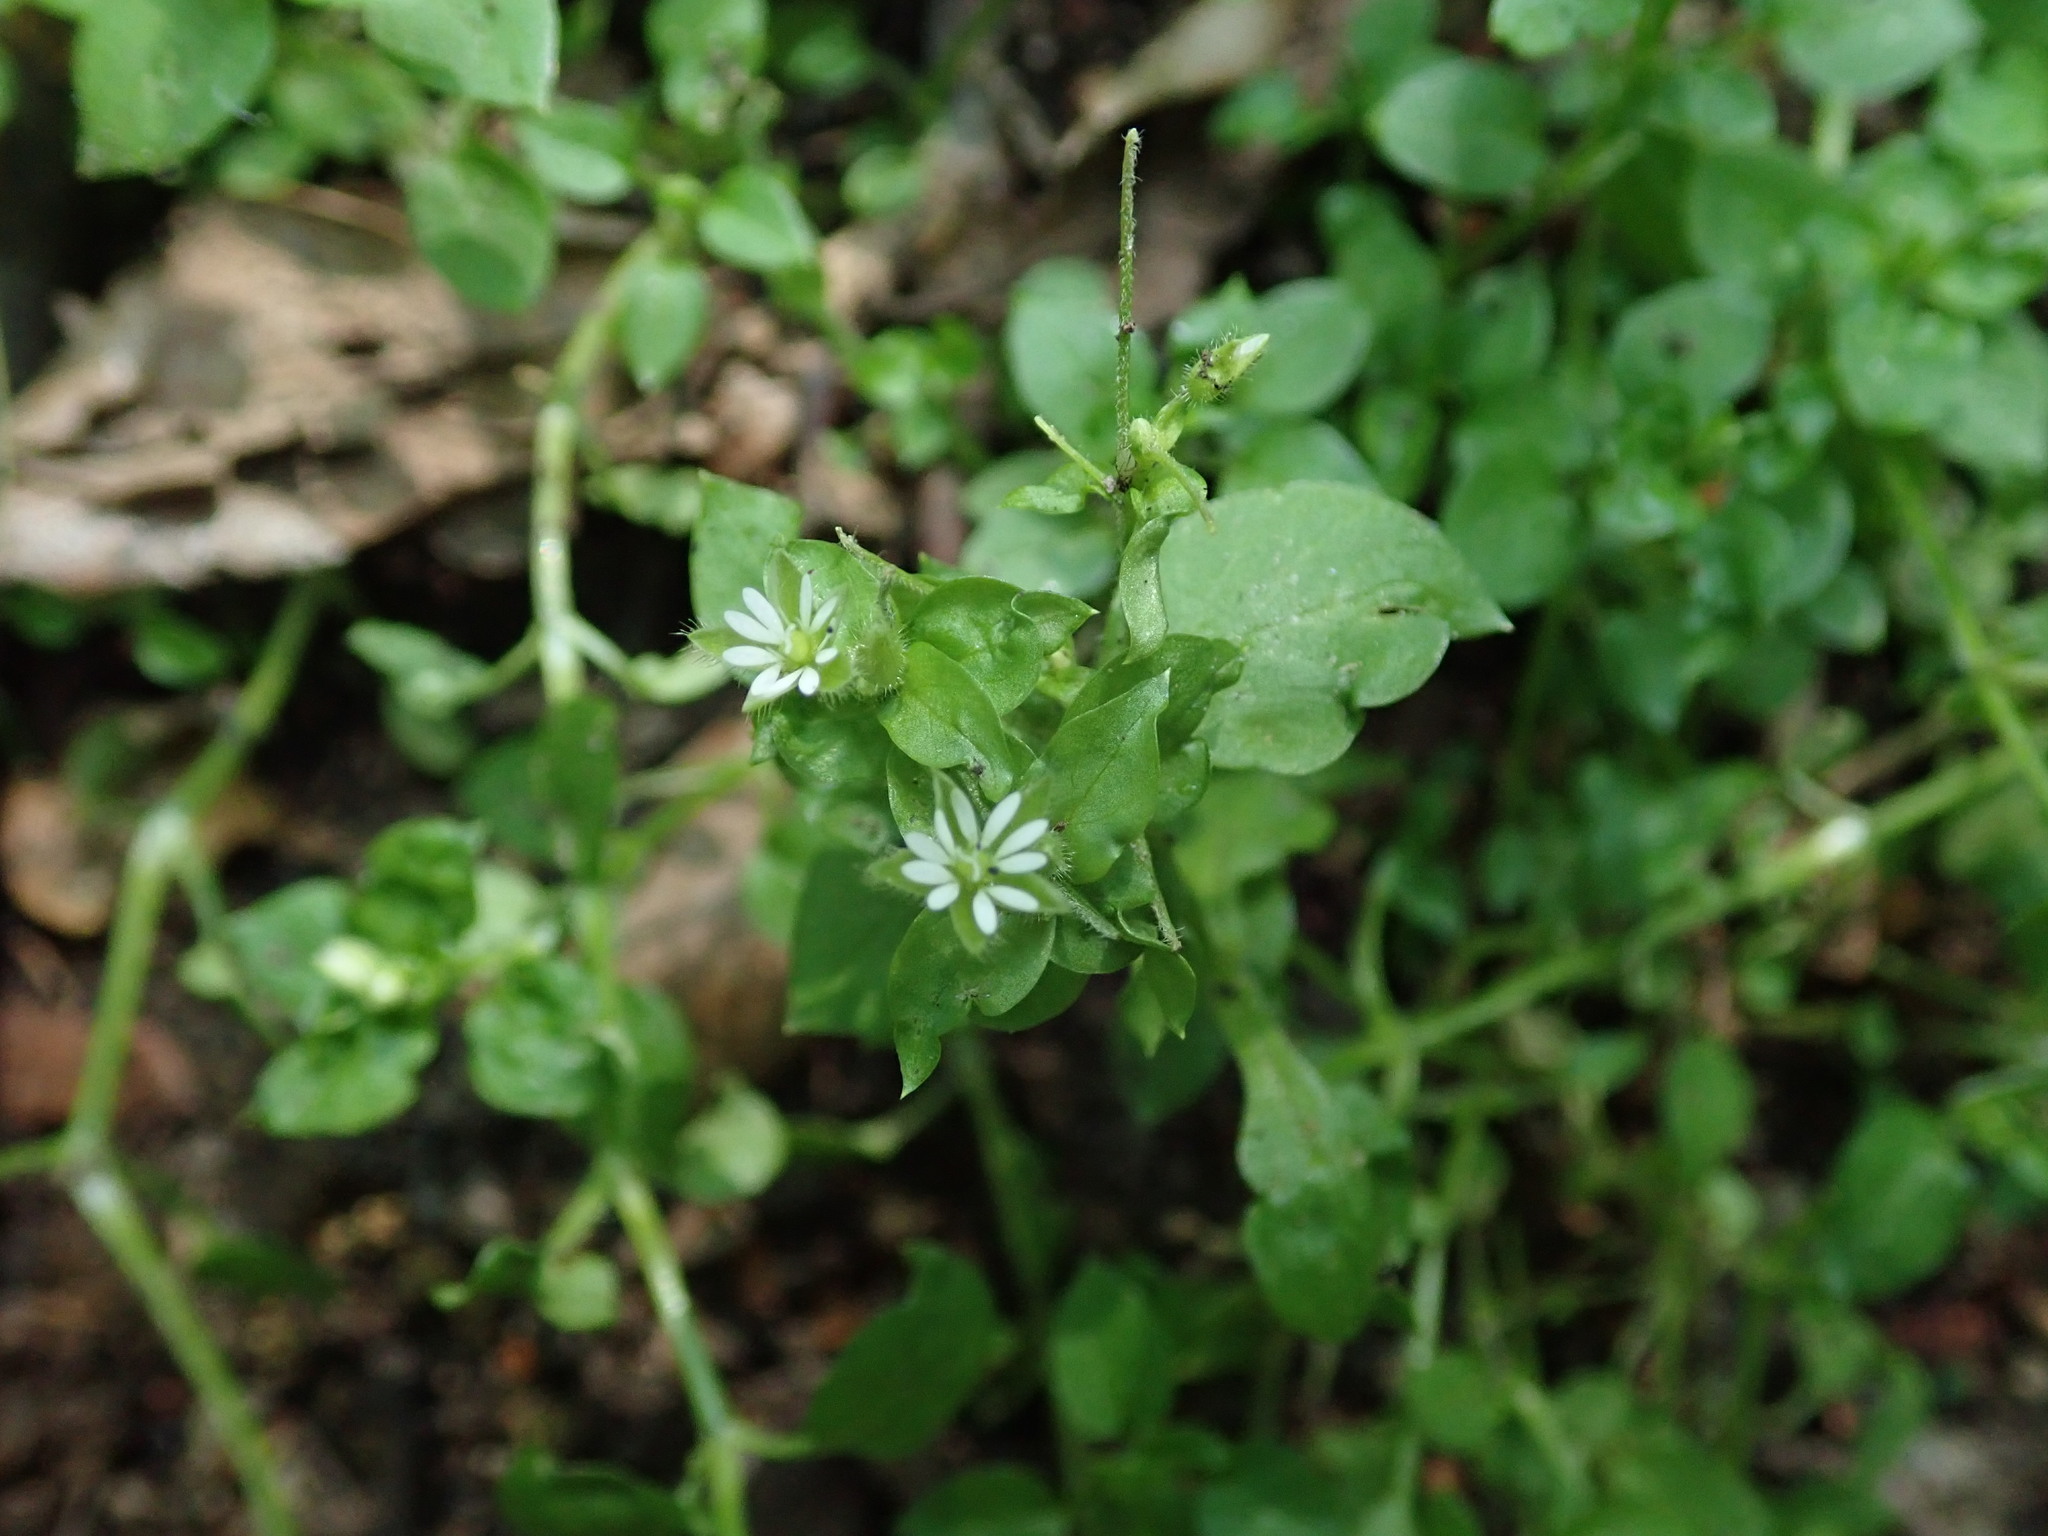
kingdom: Plantae
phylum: Tracheophyta
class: Magnoliopsida
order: Caryophyllales
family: Caryophyllaceae
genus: Stellaria
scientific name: Stellaria media
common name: Common chickweed
